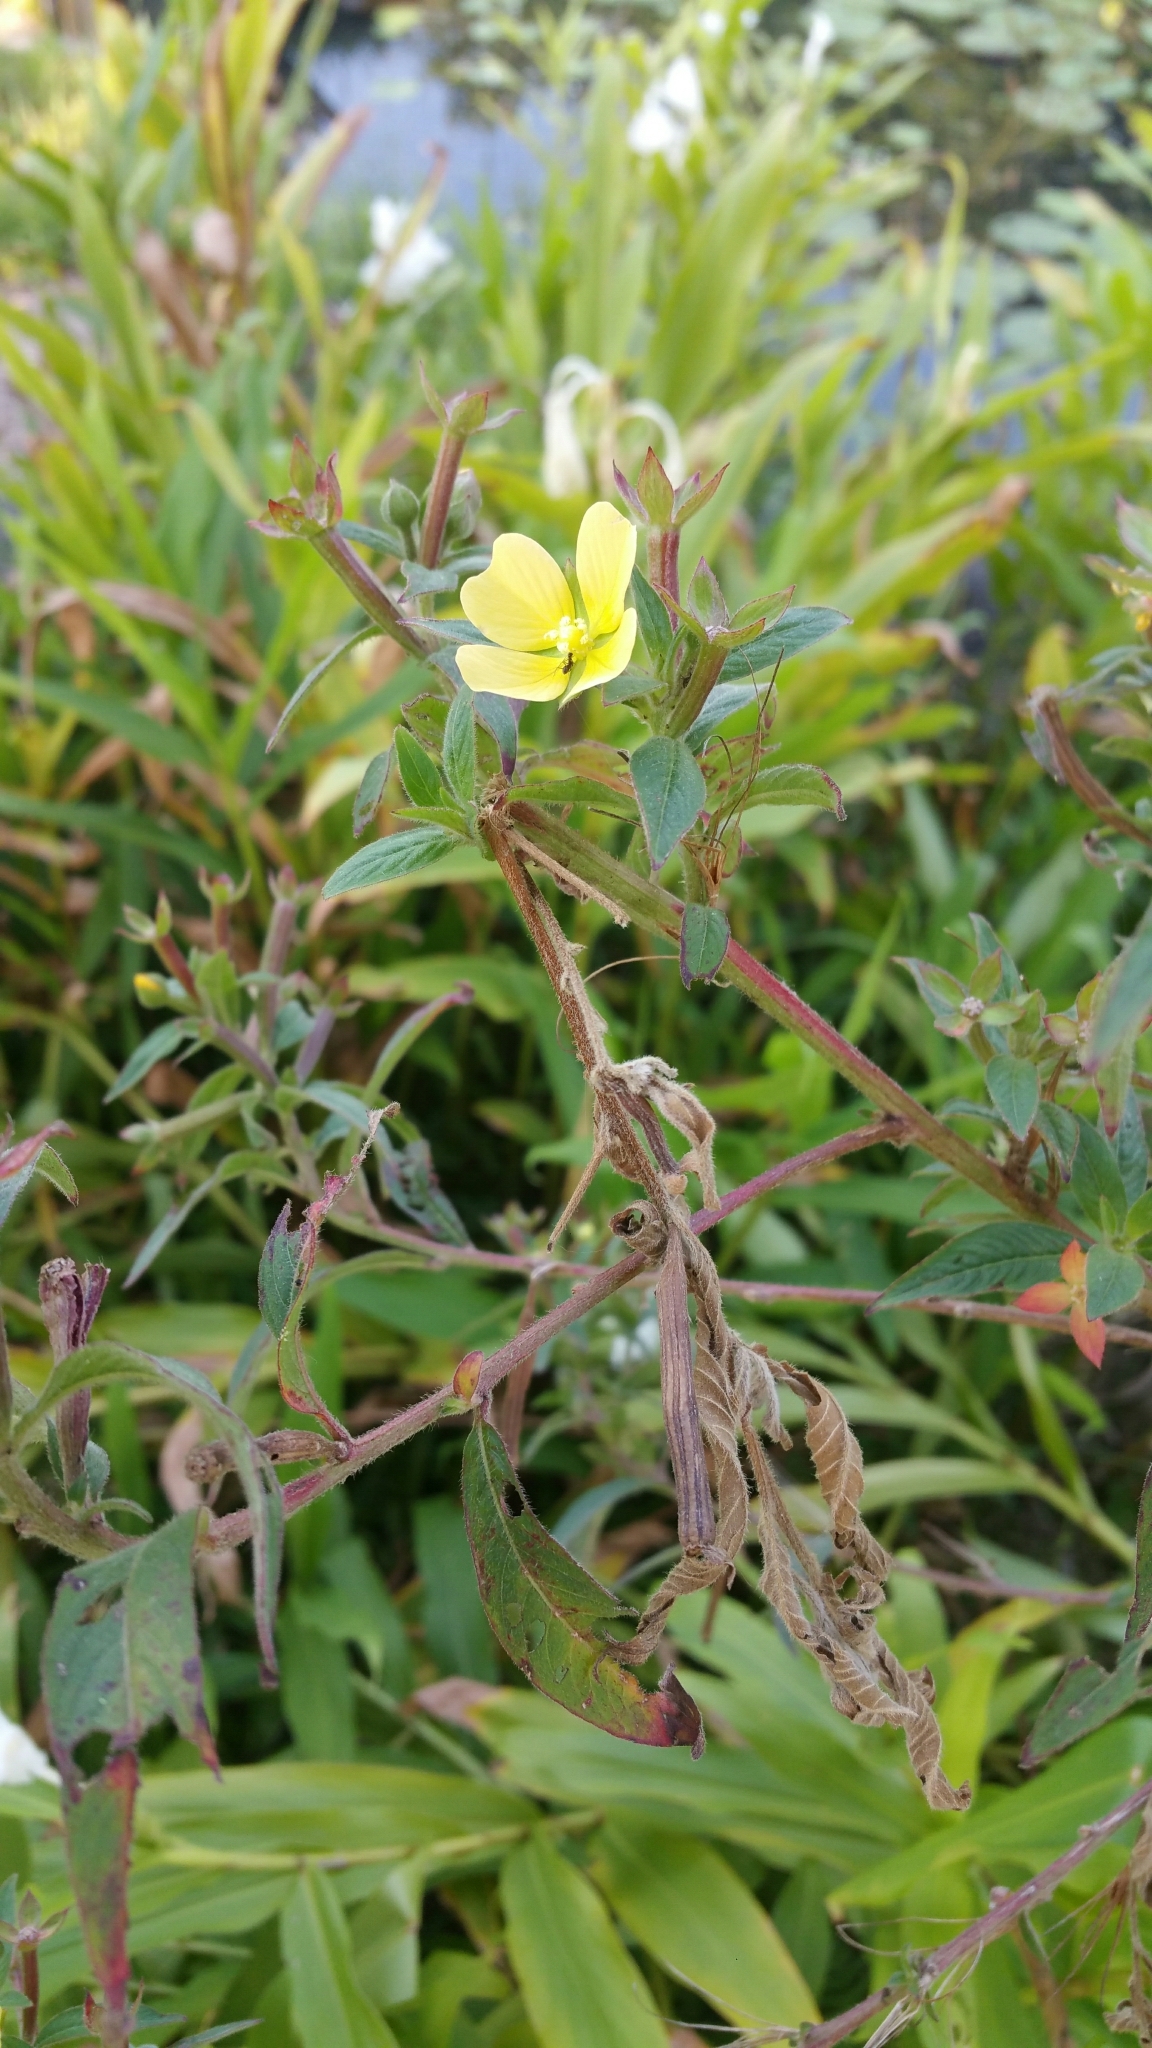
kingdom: Plantae
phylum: Tracheophyta
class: Magnoliopsida
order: Myrtales
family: Onagraceae
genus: Ludwigia
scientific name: Ludwigia octovalvis
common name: Water-primrose
